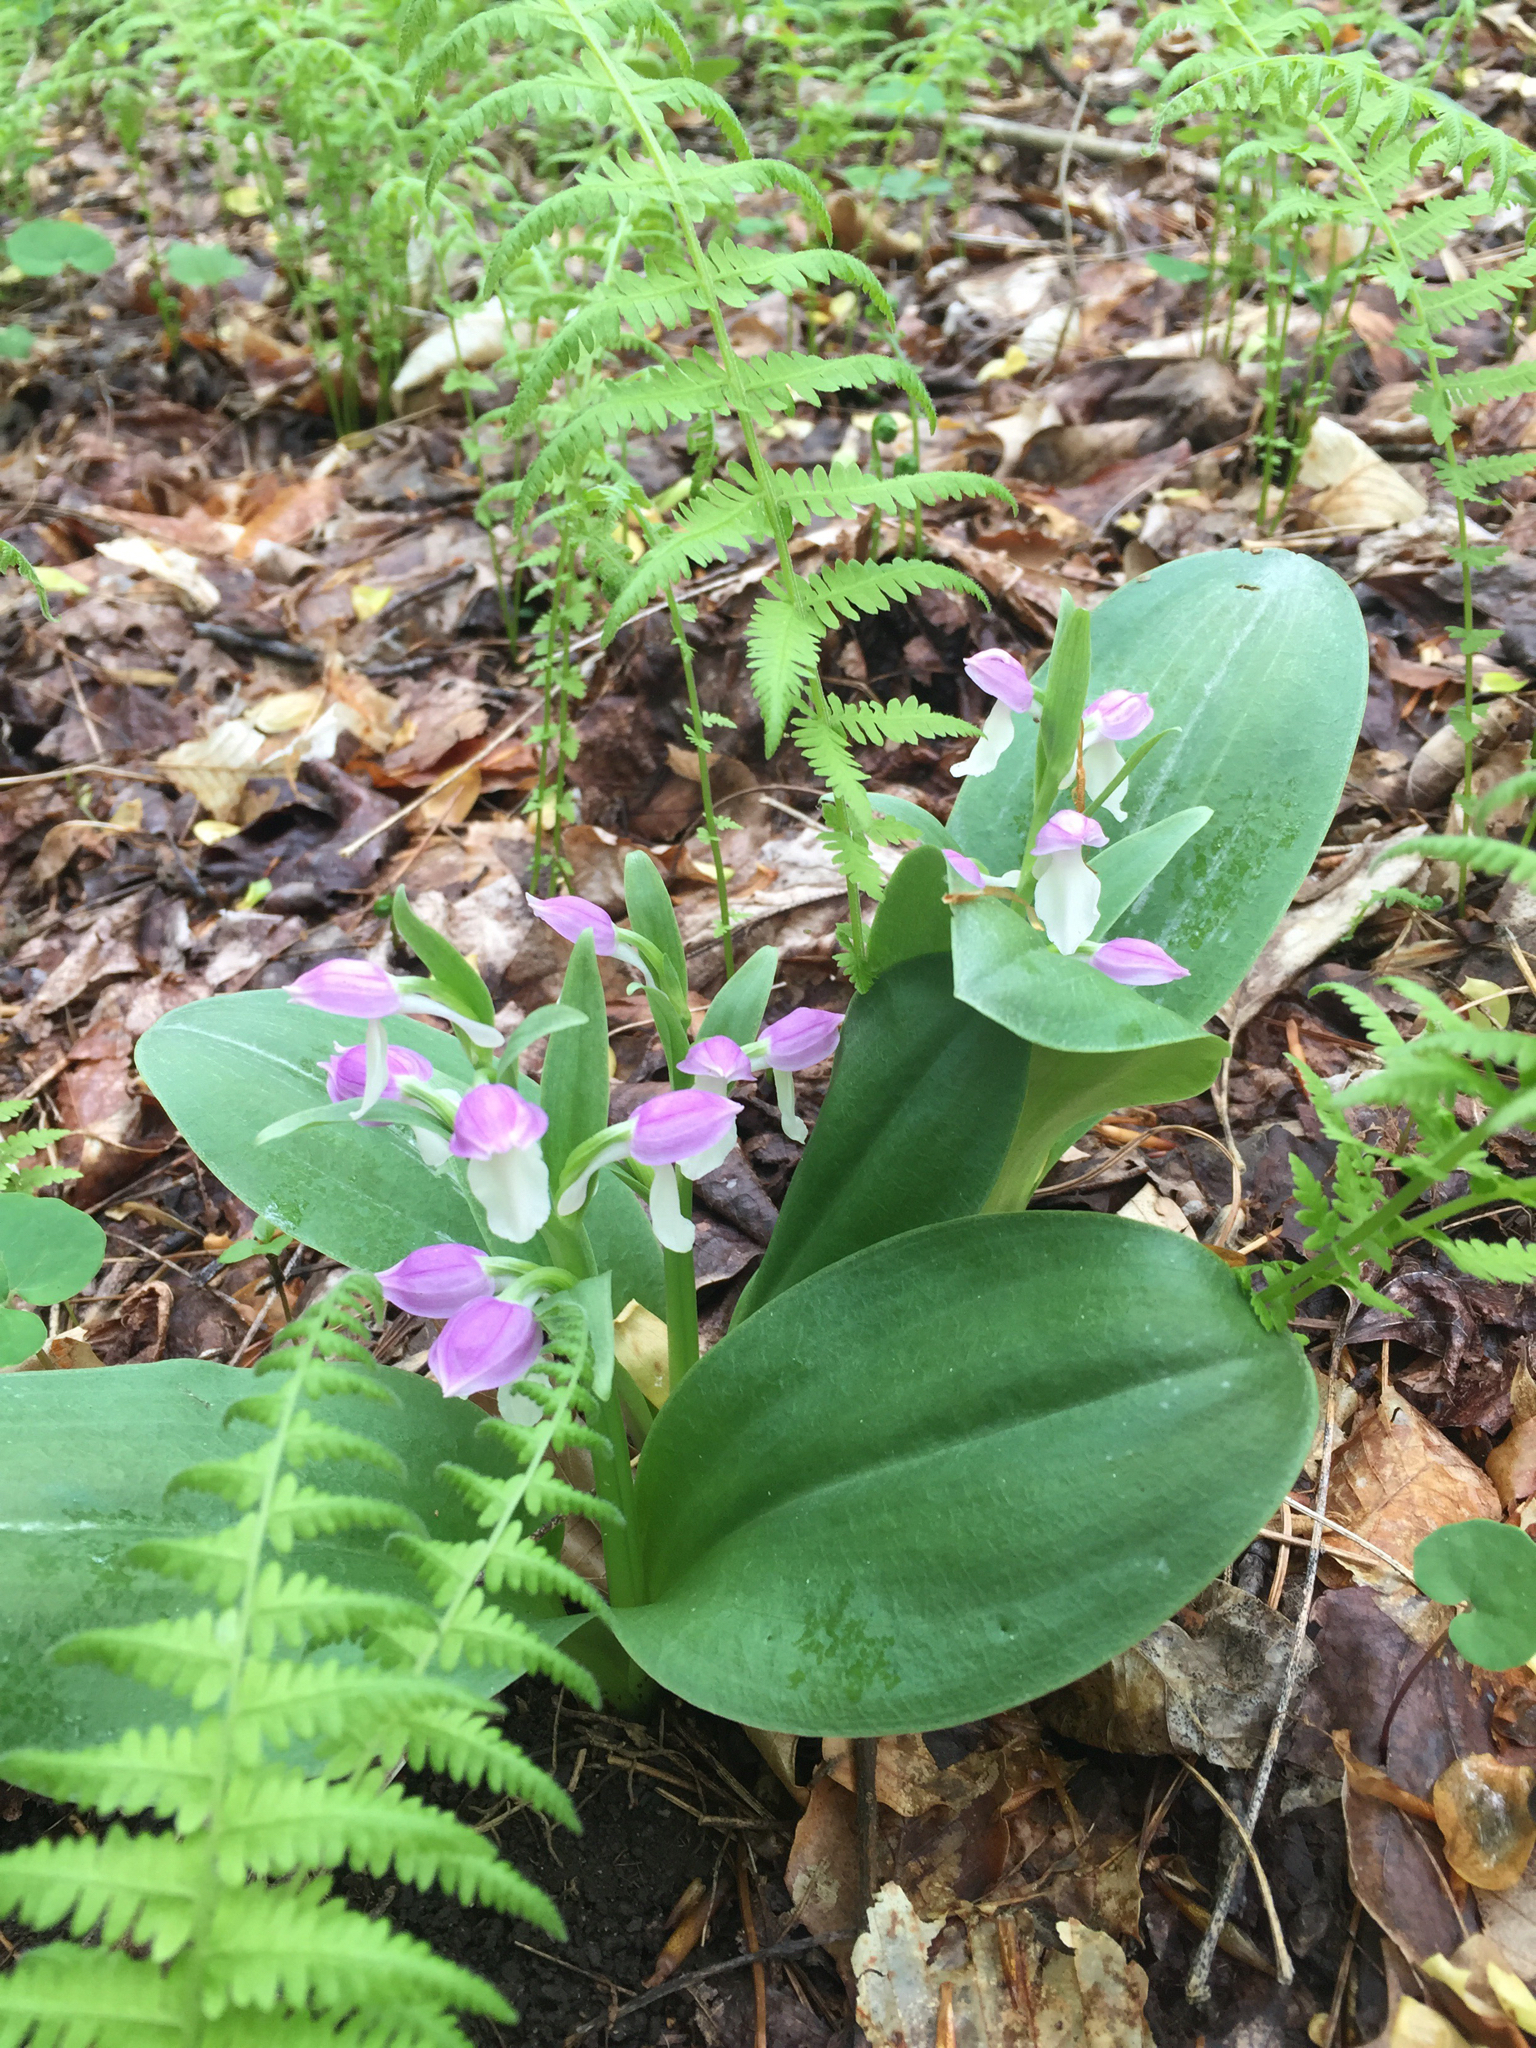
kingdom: Plantae
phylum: Tracheophyta
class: Liliopsida
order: Asparagales
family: Orchidaceae
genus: Galearis
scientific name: Galearis spectabilis
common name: Purple-hooded orchis
